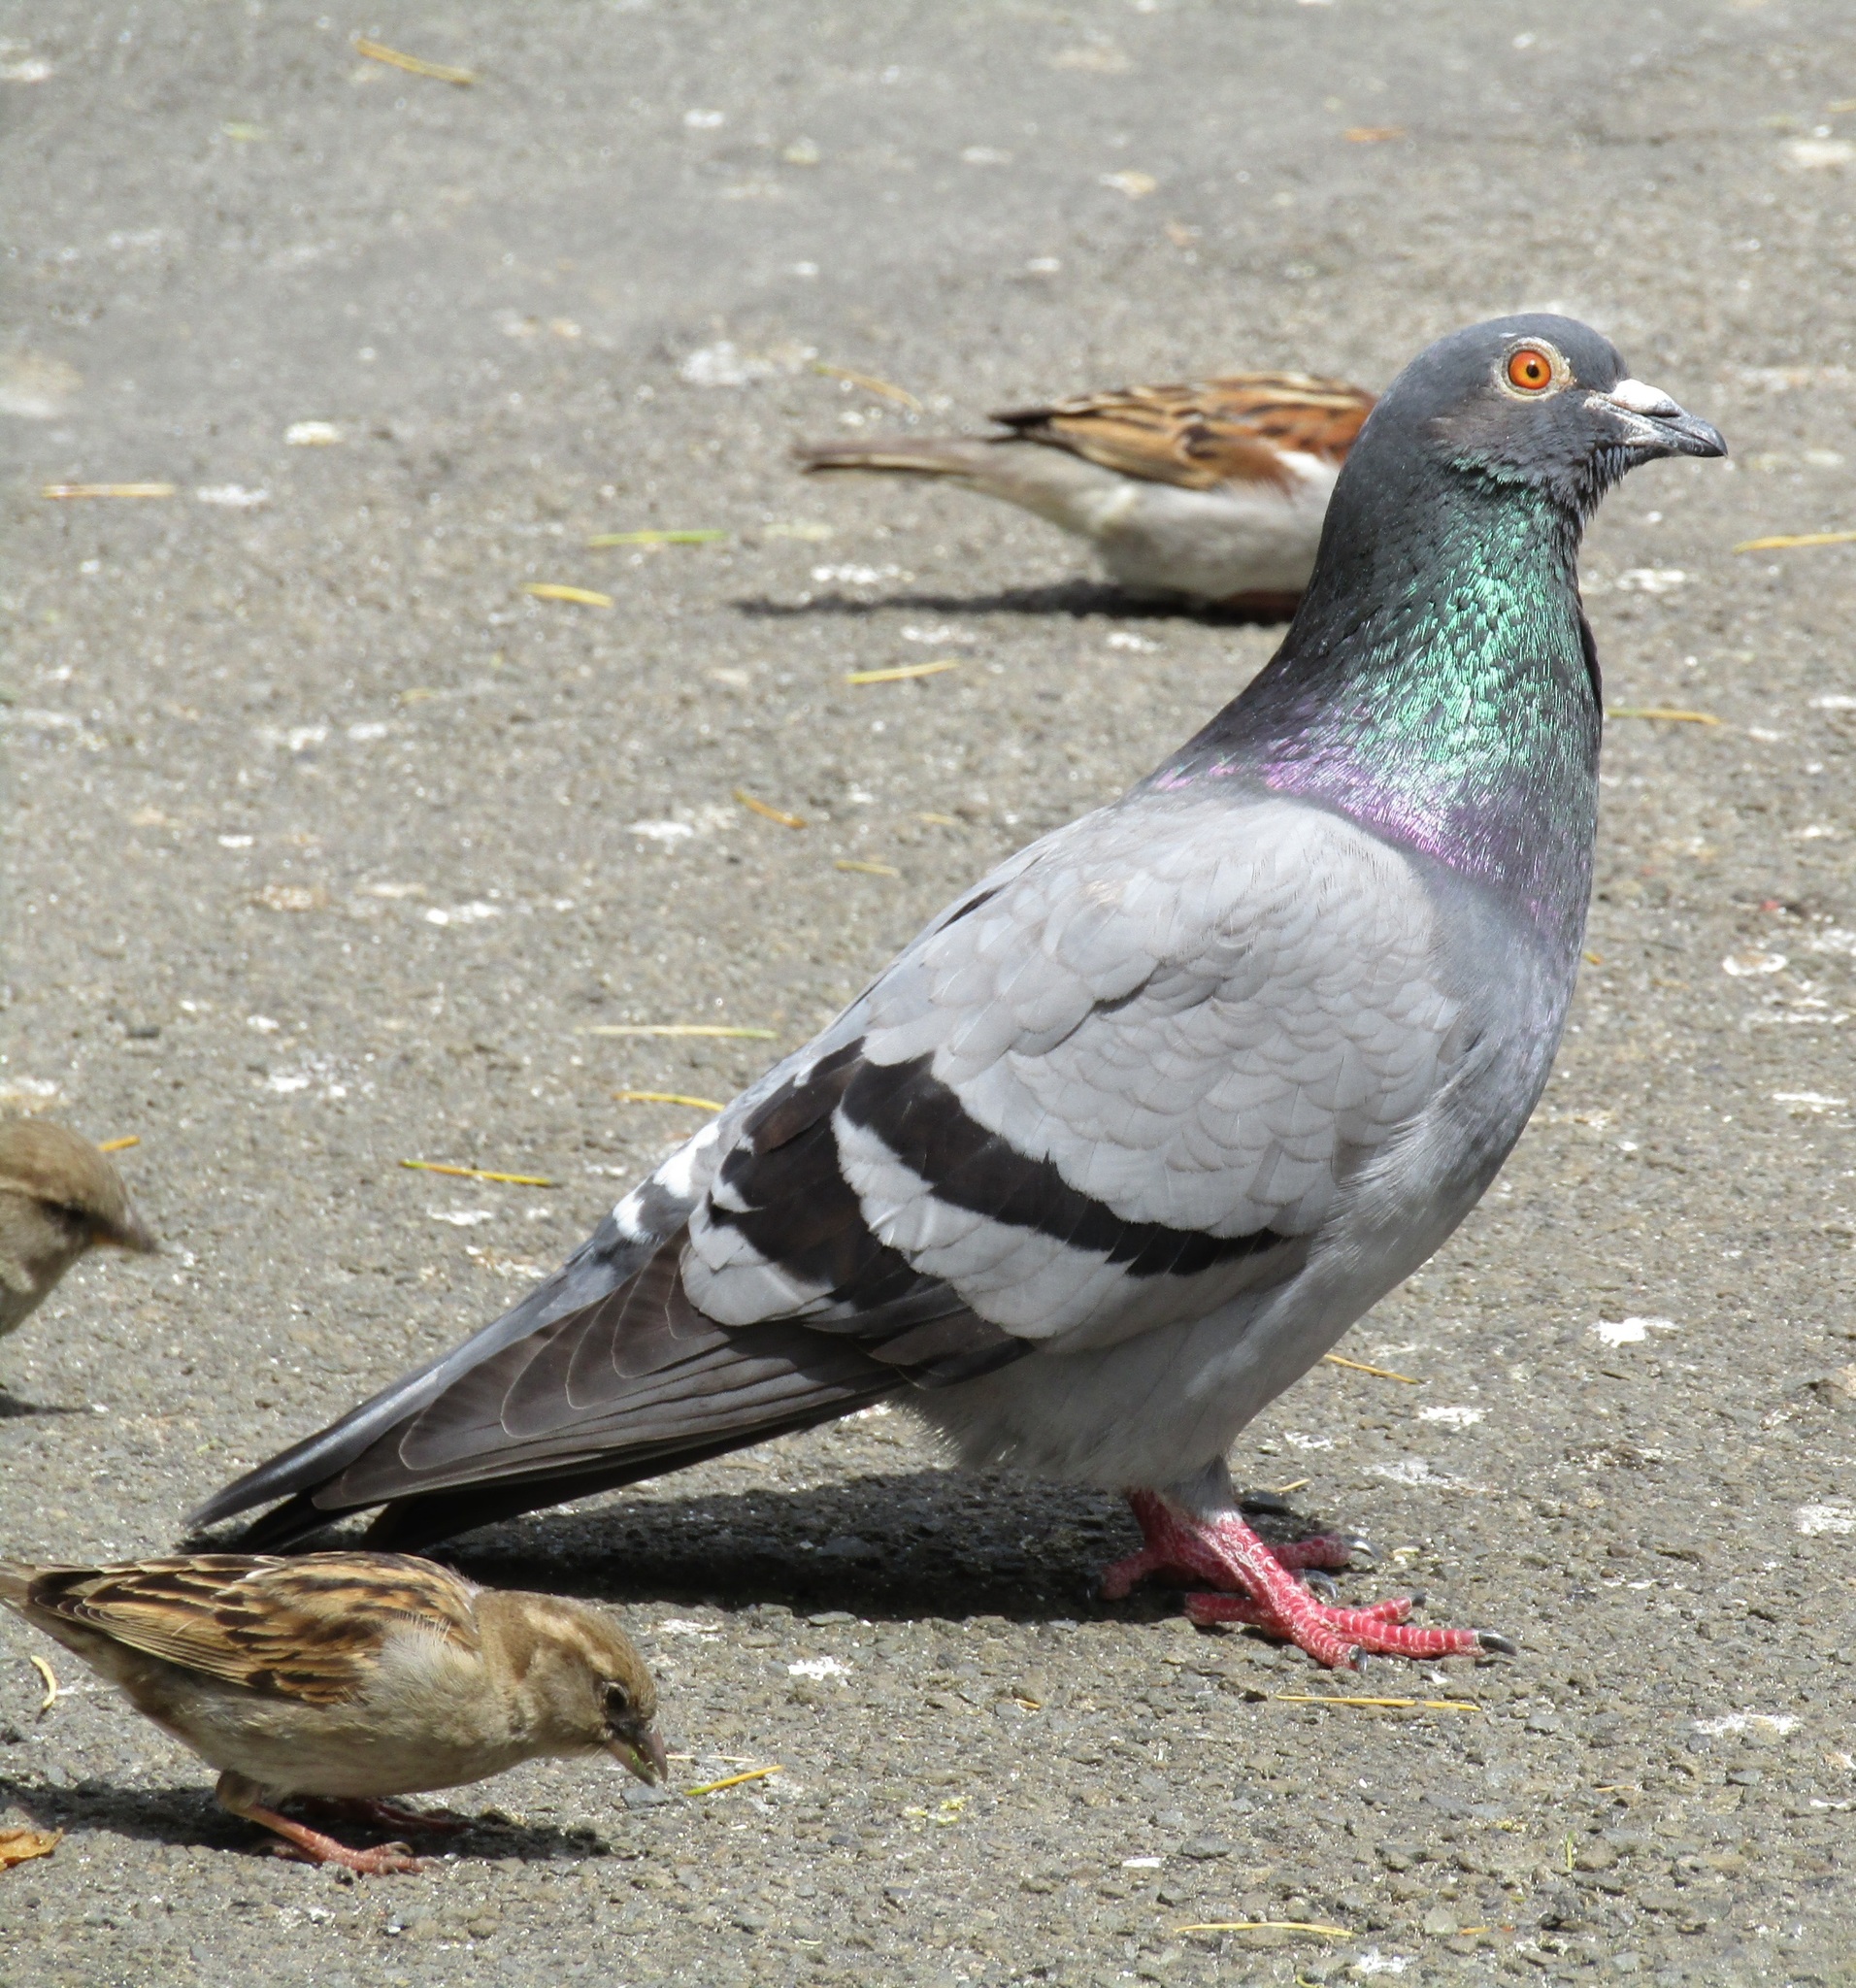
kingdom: Animalia
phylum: Chordata
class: Aves
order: Columbiformes
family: Columbidae
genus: Columba
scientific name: Columba livia
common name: Rock pigeon
